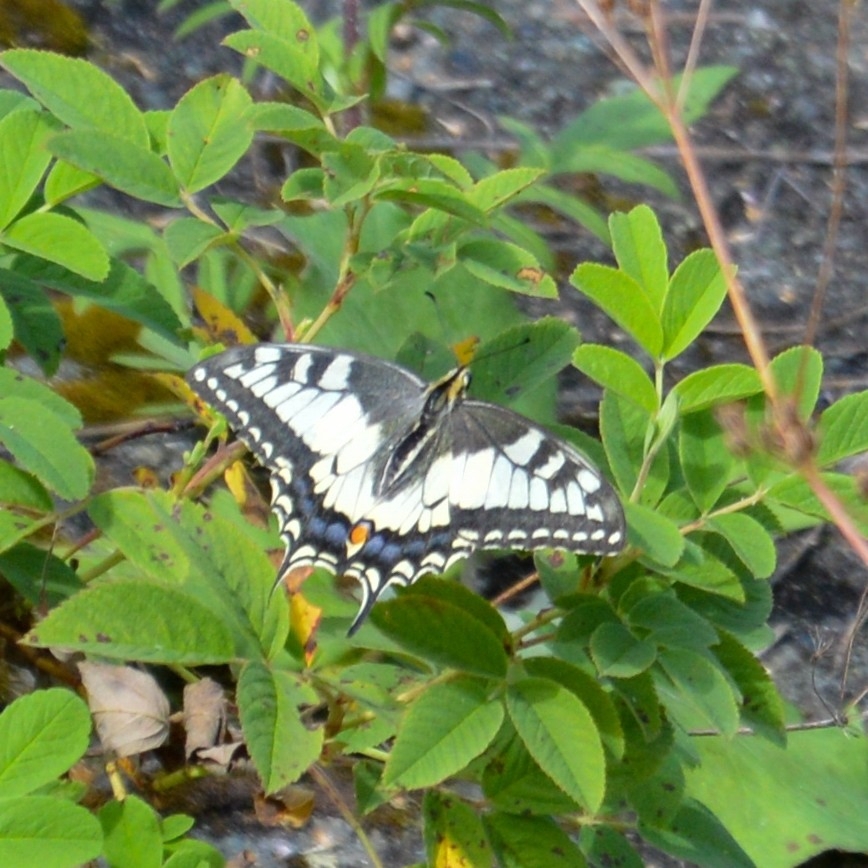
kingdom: Animalia
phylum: Arthropoda
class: Insecta
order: Lepidoptera
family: Papilionidae
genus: Papilio
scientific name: Papilio machaon
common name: Swallowtail
